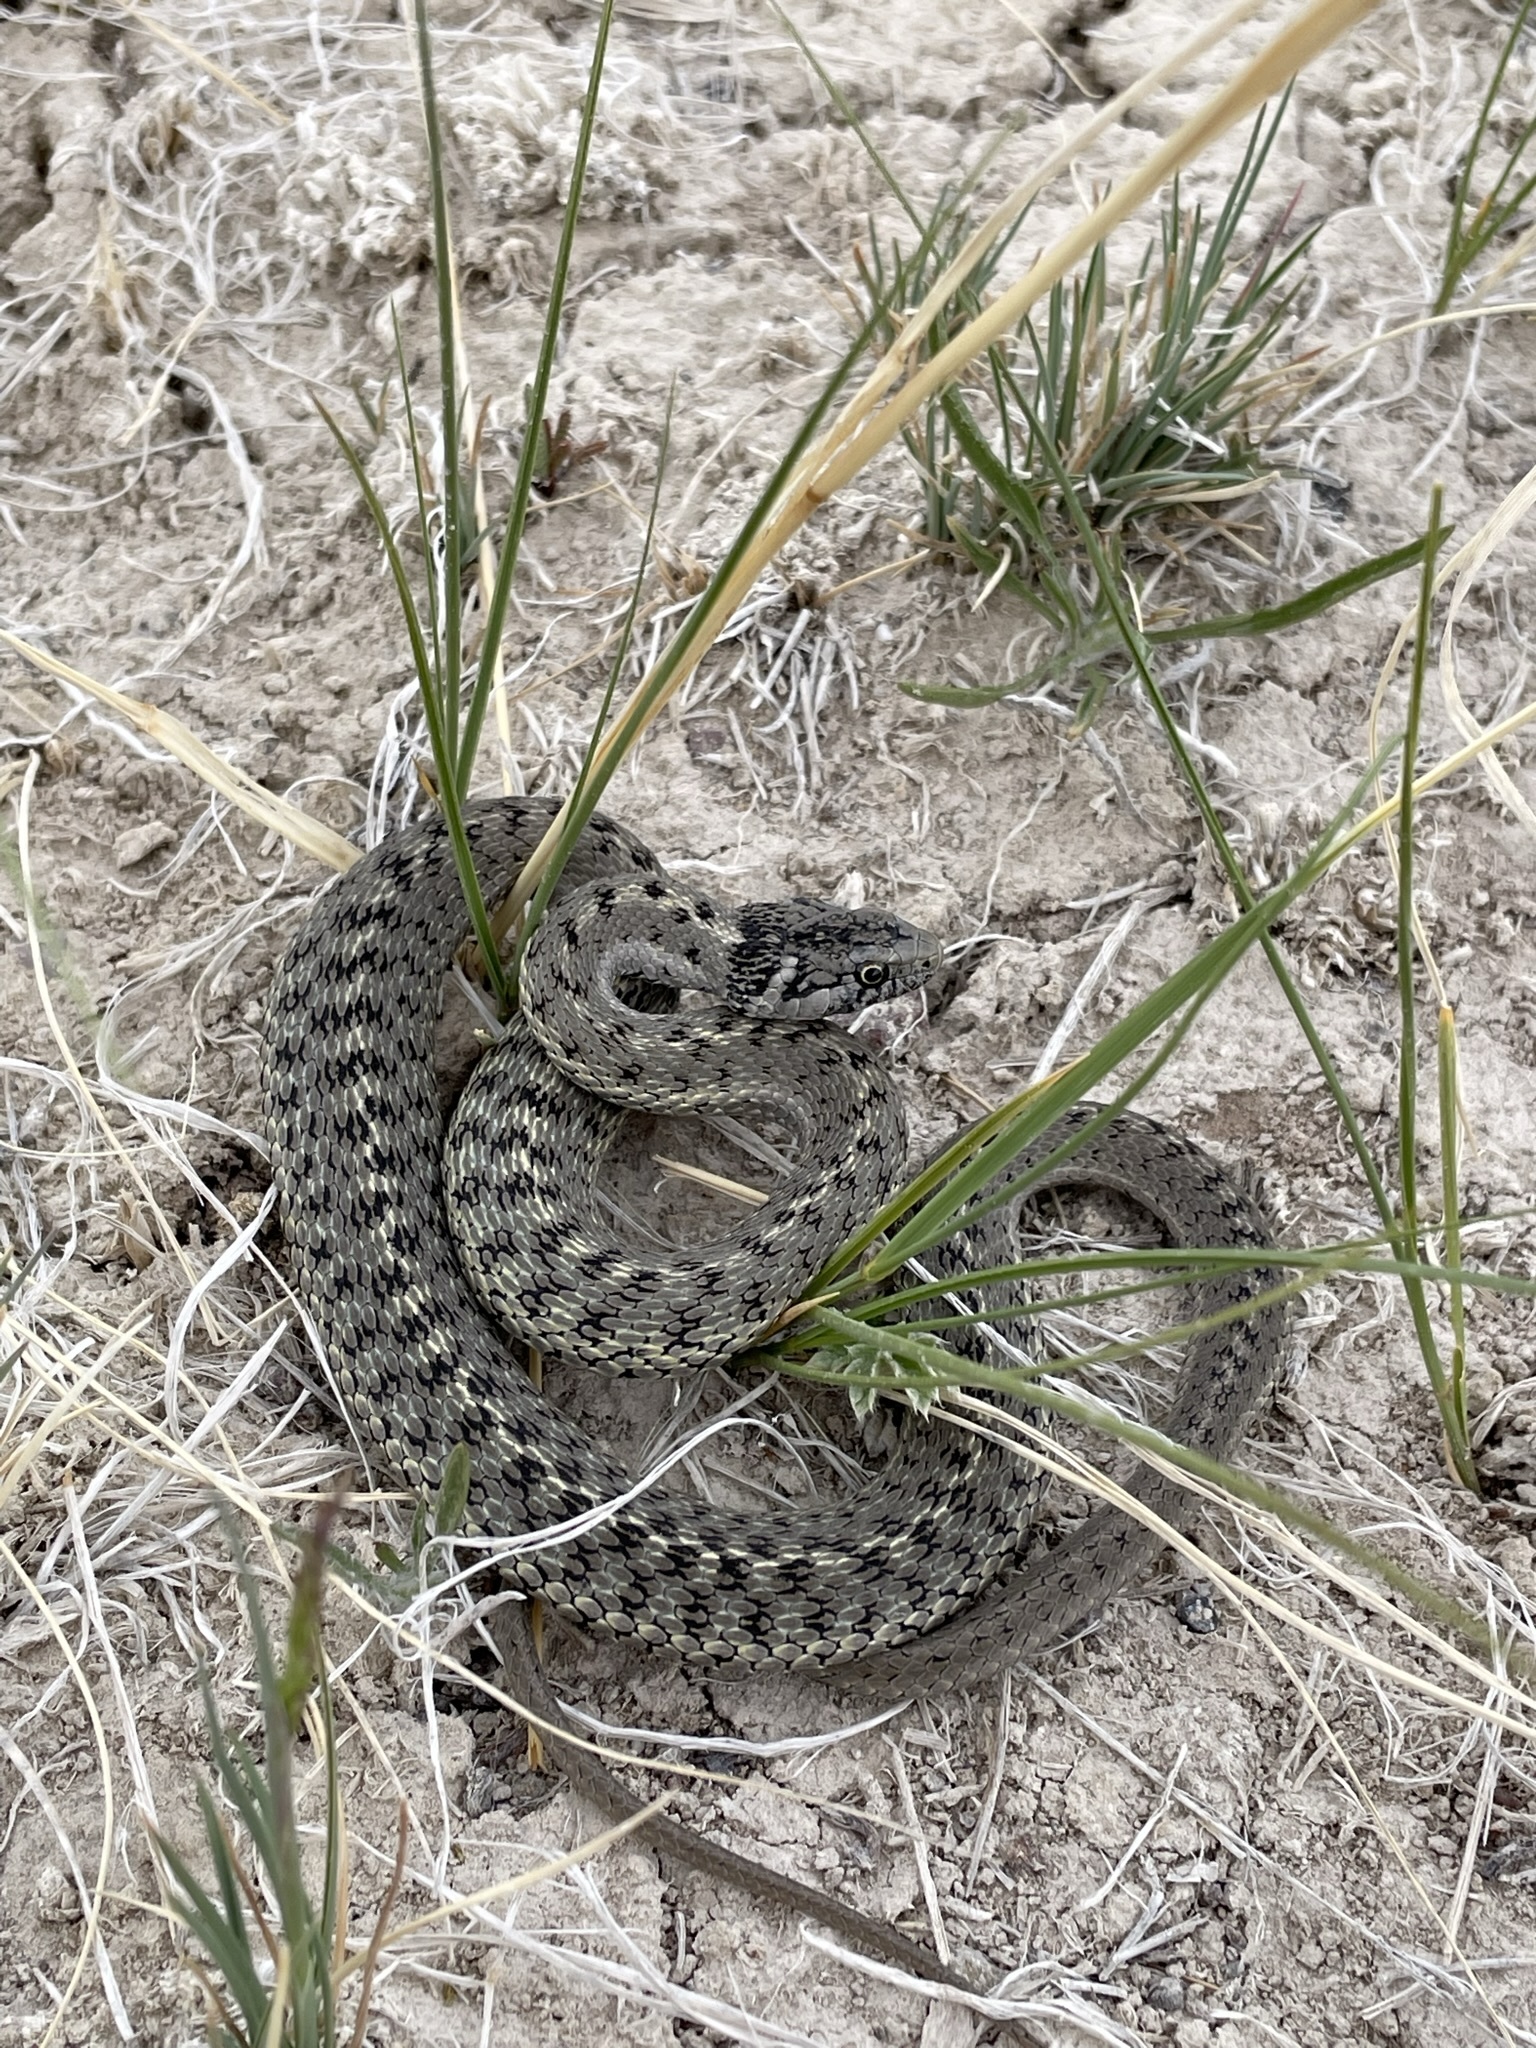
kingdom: Animalia
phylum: Chordata
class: Squamata
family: Colubridae
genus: Thamnophis
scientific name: Thamnophis elegans
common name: Western terrestrial garter snake
